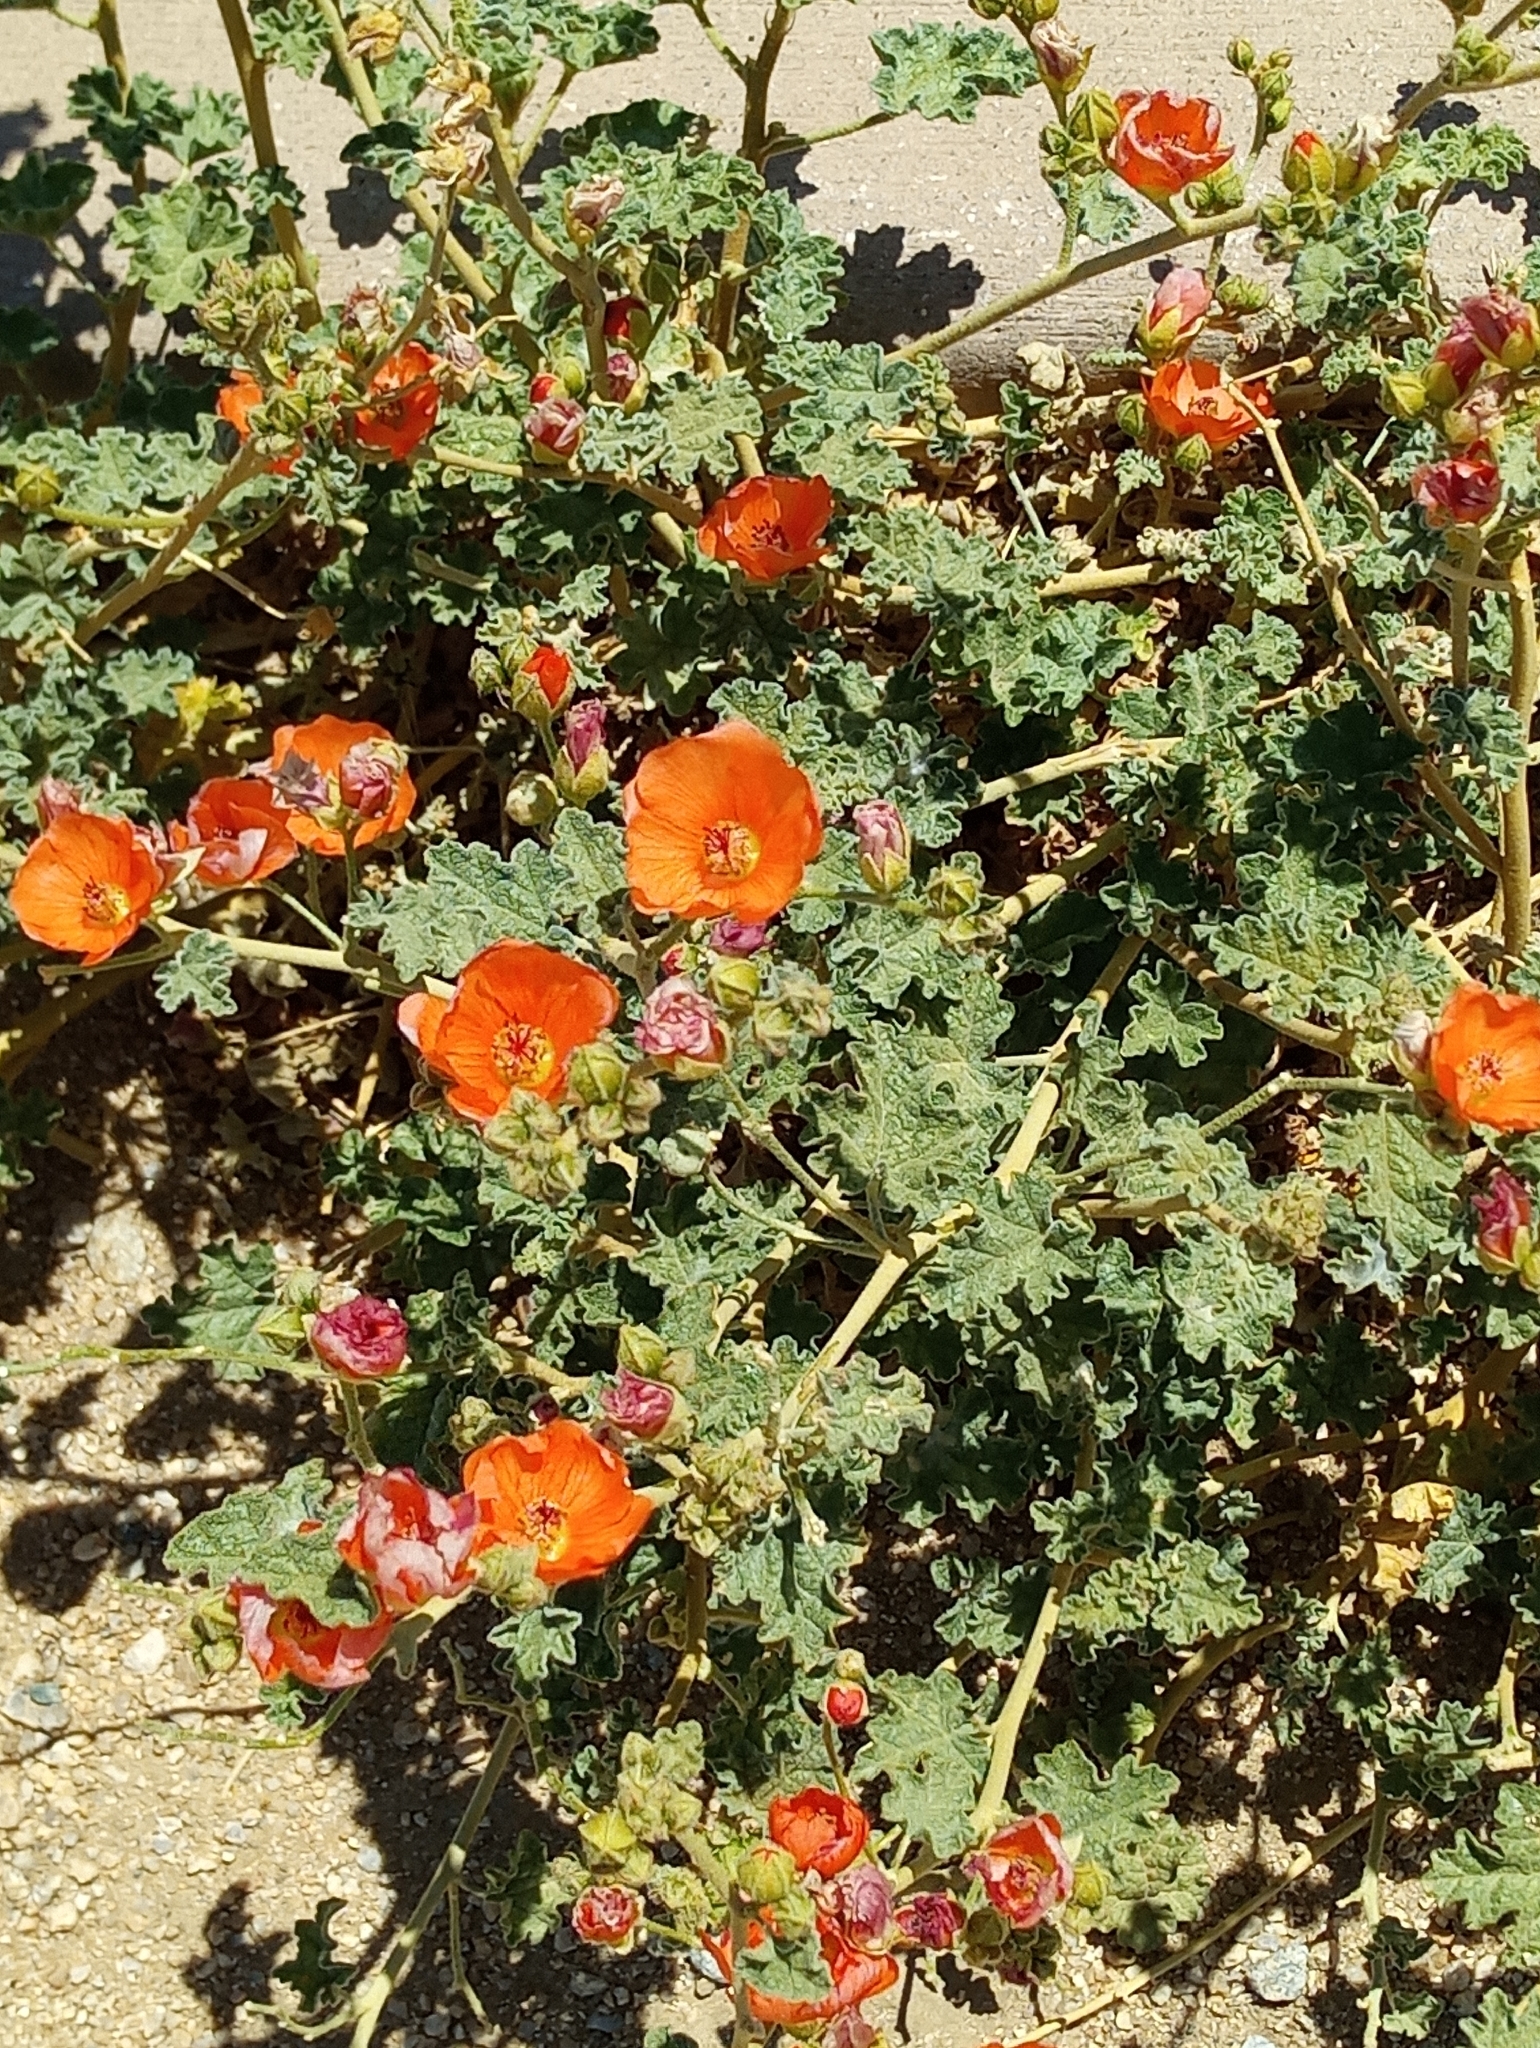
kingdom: Plantae
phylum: Tracheophyta
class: Magnoliopsida
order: Malvales
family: Malvaceae
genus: Sphaeralcea
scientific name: Sphaeralcea ambigua
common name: Apricot globe-mallow
